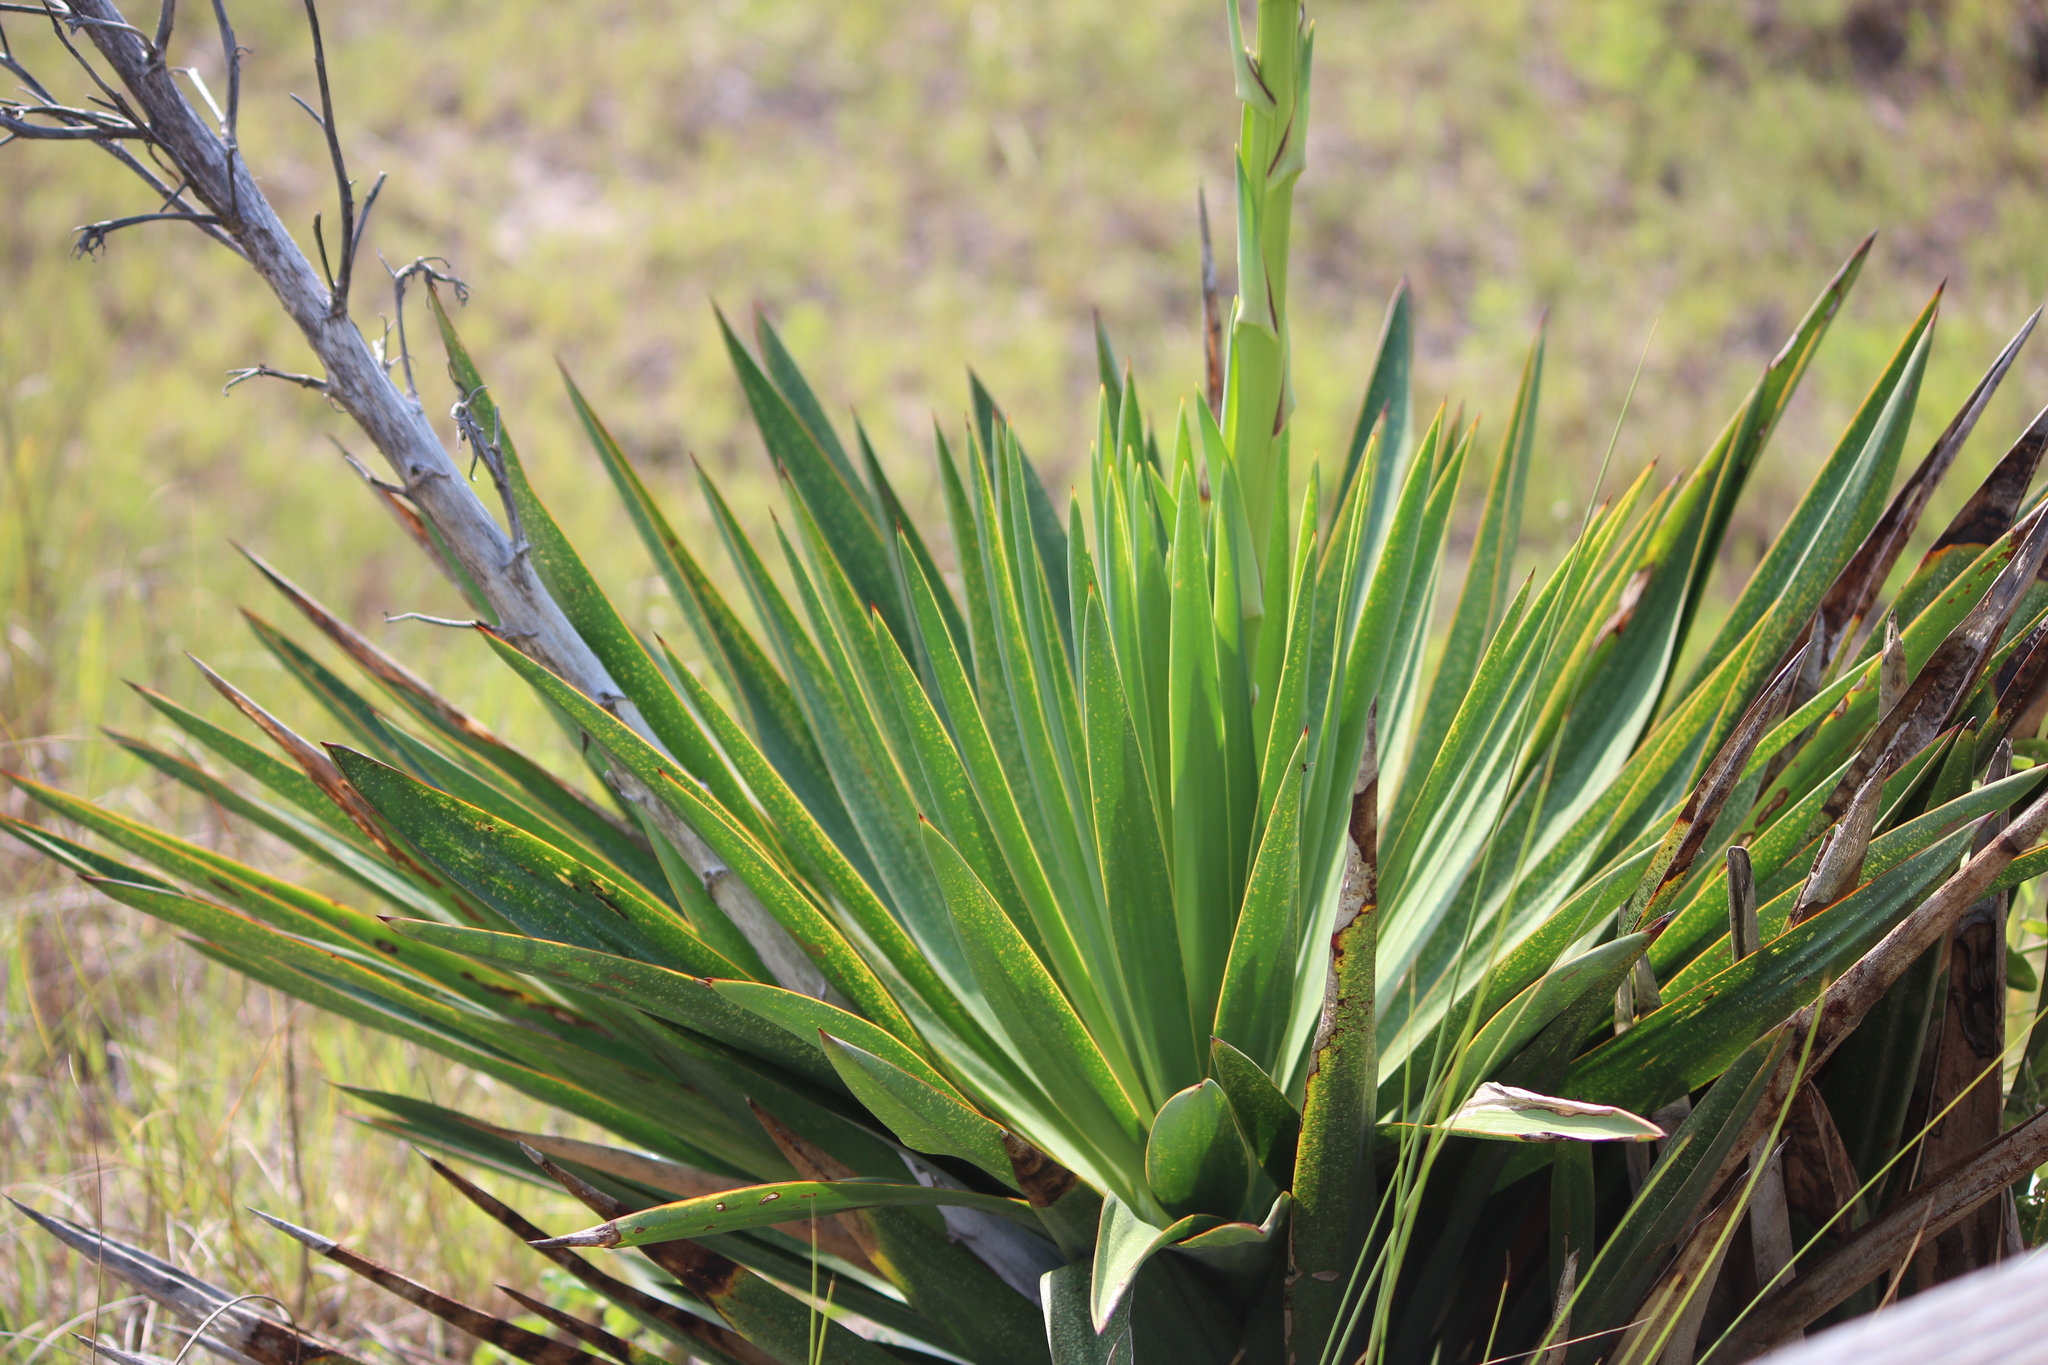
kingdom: Plantae
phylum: Tracheophyta
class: Liliopsida
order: Asparagales
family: Asparagaceae
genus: Yucca
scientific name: Yucca gloriosa
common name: Spanish-dagger
